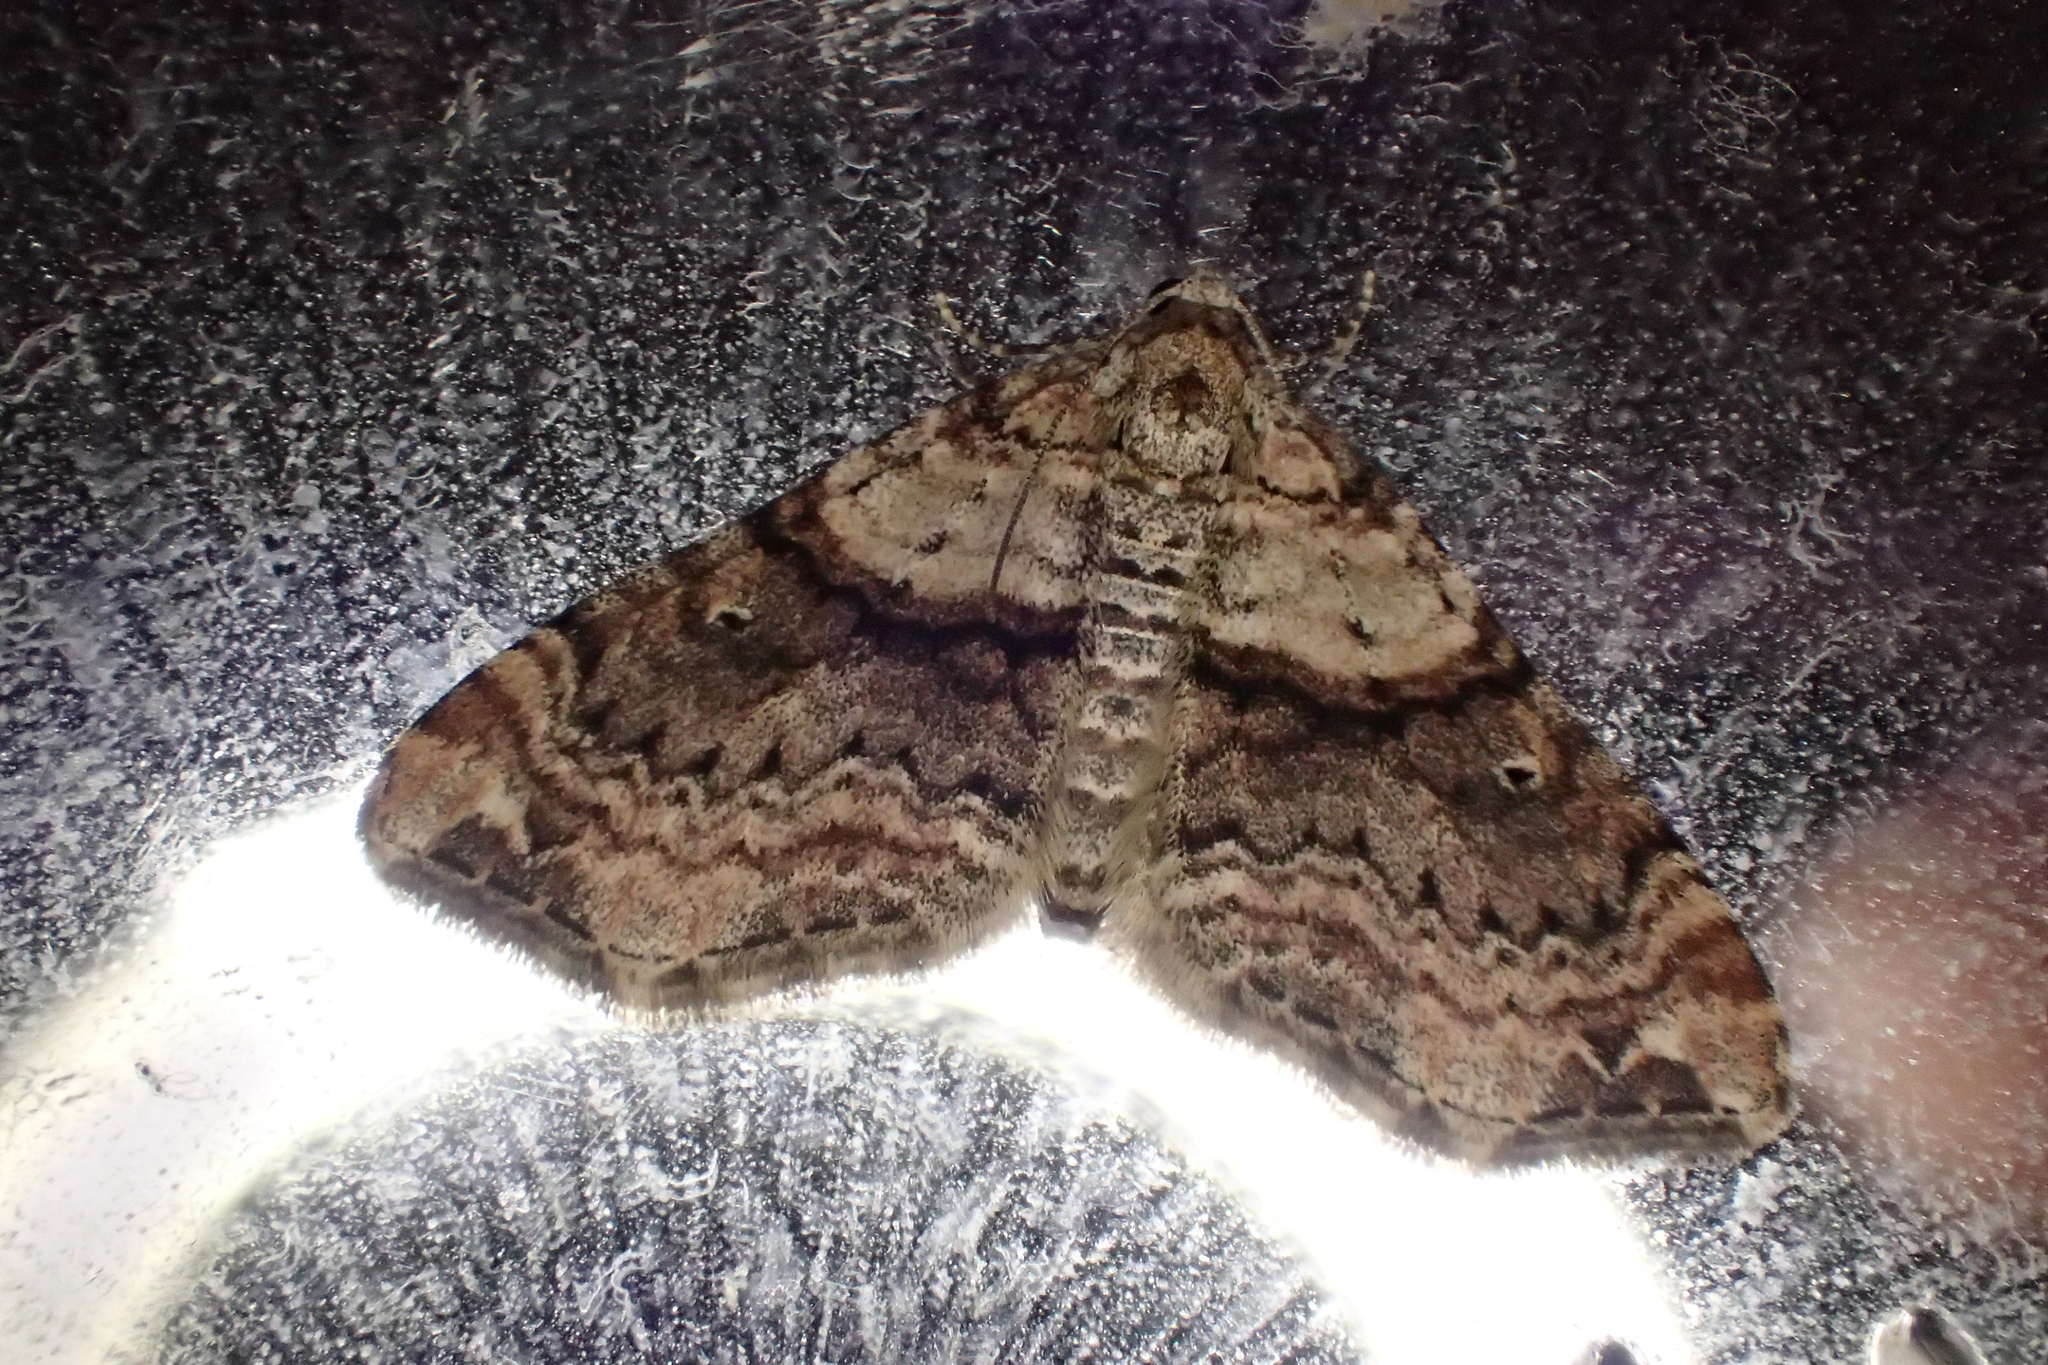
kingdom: Animalia
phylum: Arthropoda
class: Insecta
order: Lepidoptera
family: Geometridae
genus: Oulobophora
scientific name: Oulobophora externaria
